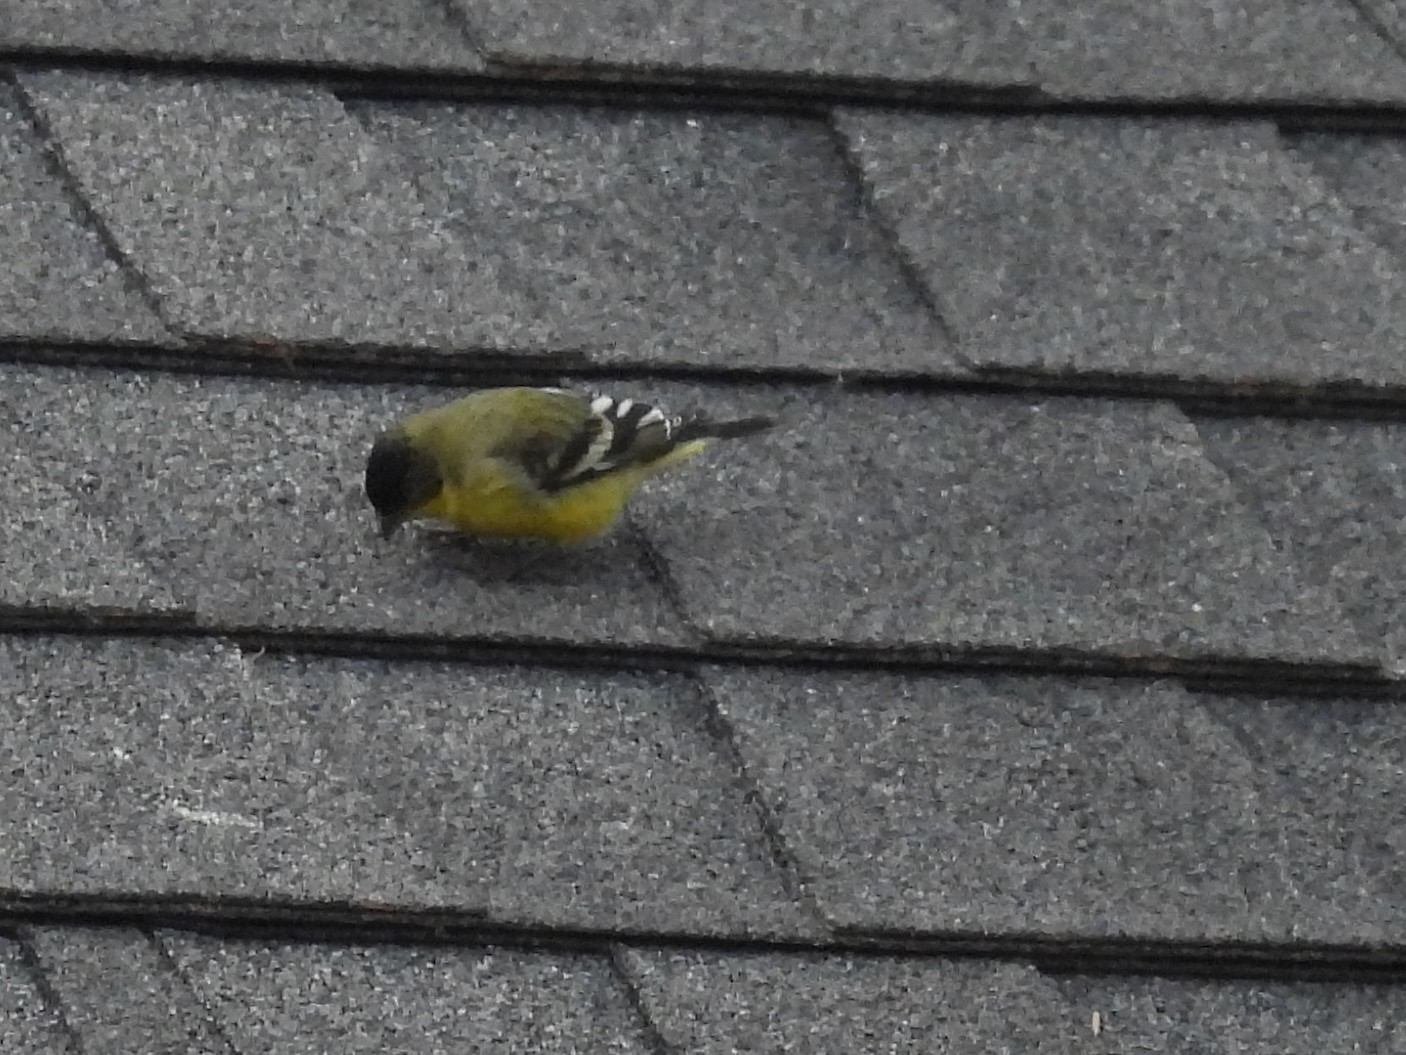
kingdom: Animalia
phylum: Chordata
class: Aves
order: Passeriformes
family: Fringillidae
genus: Spinus
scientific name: Spinus psaltria
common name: Lesser goldfinch
